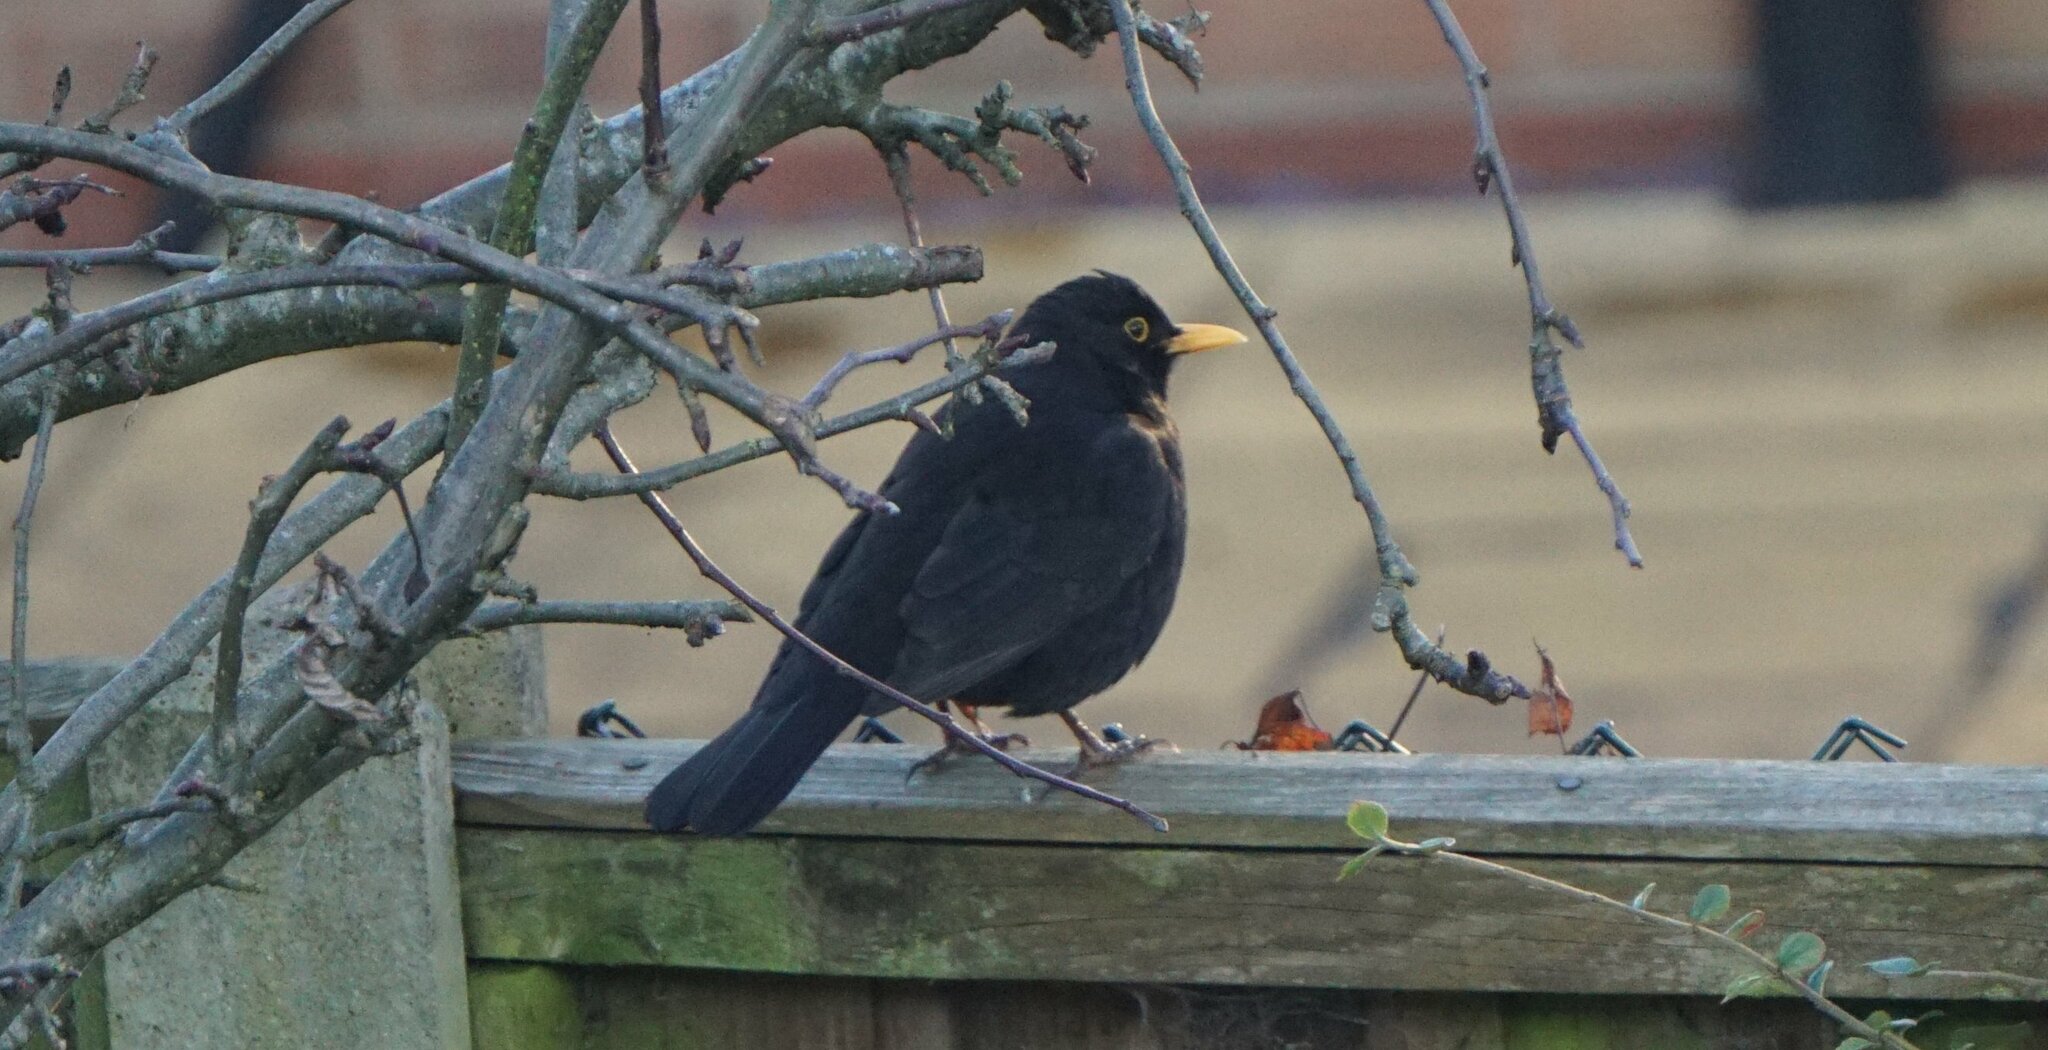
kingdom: Animalia
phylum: Chordata
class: Aves
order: Passeriformes
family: Turdidae
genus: Turdus
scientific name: Turdus merula
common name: Common blackbird
